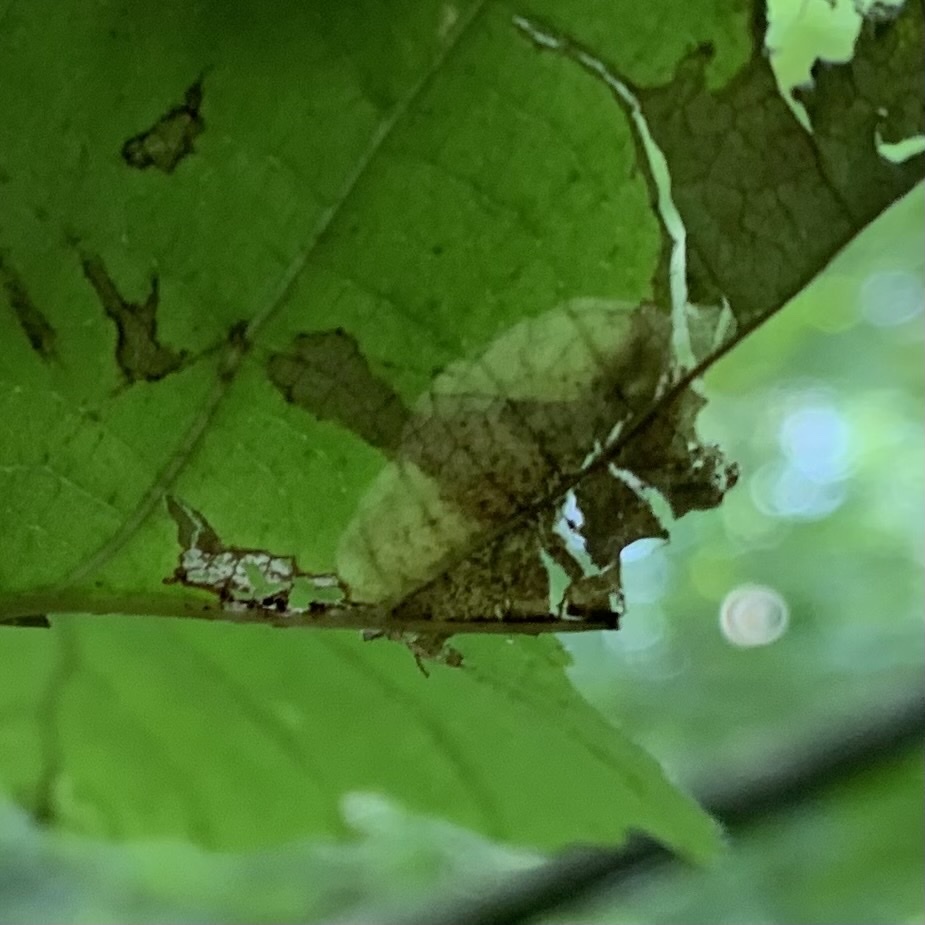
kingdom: Animalia
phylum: Arthropoda
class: Insecta
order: Lepidoptera
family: Gracillariidae
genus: Cameraria
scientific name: Cameraria hamameliella
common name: Witchhazel leafminer
